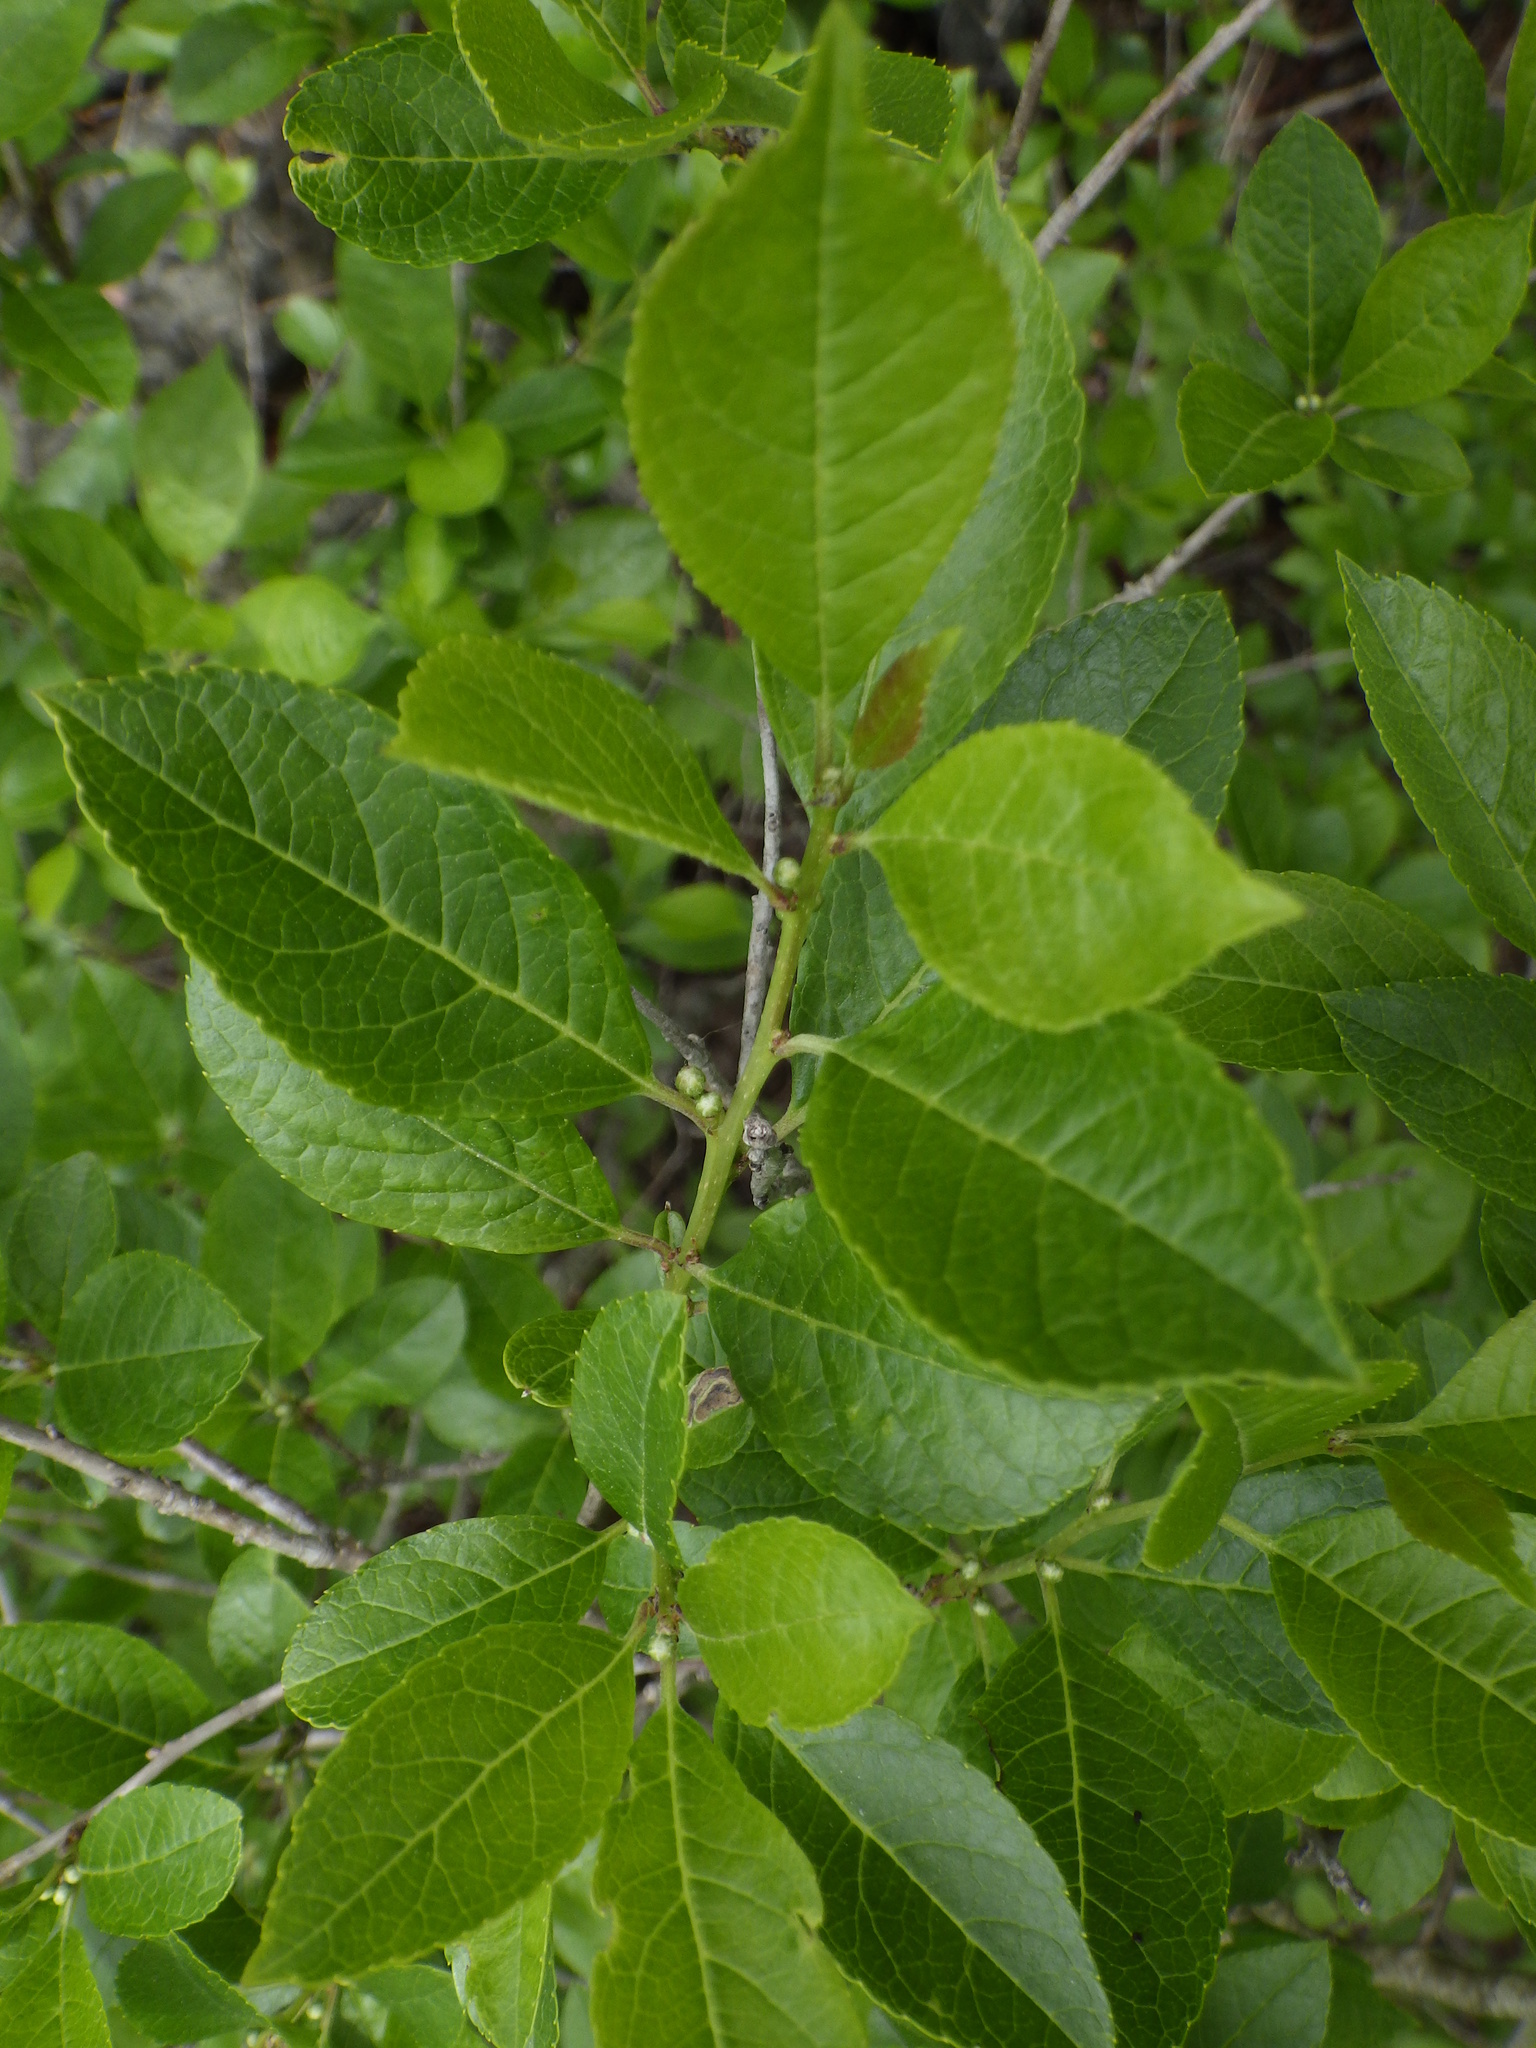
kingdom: Plantae
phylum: Tracheophyta
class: Magnoliopsida
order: Aquifoliales
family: Aquifoliaceae
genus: Ilex
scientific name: Ilex verticillata
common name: Virginia winterberry
